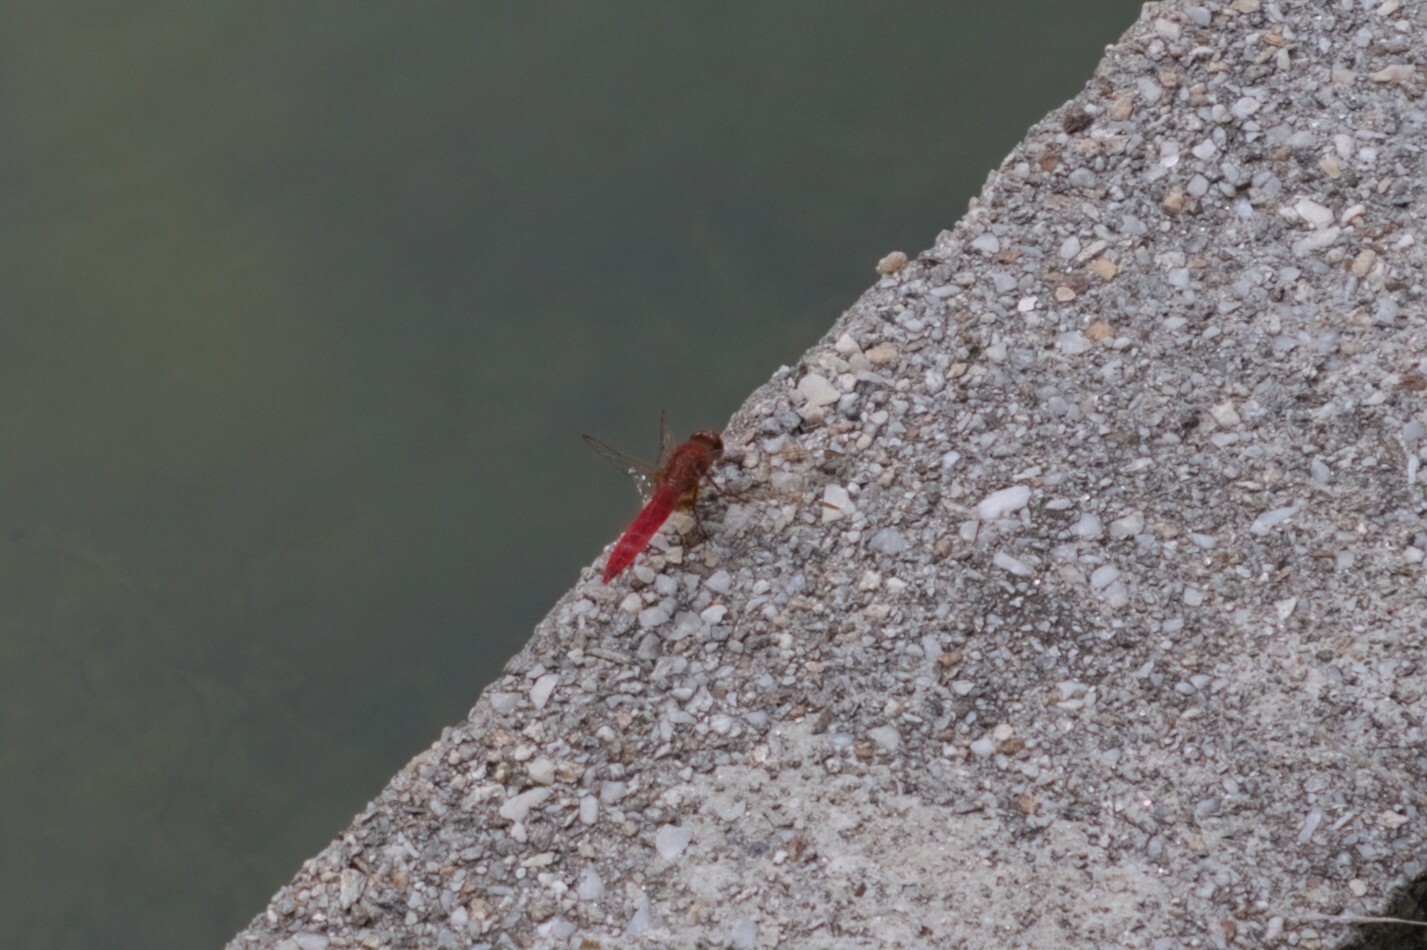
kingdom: Animalia
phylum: Arthropoda
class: Insecta
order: Odonata
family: Libellulidae
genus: Crocothemis
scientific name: Crocothemis erythraea
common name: Scarlet dragonfly
